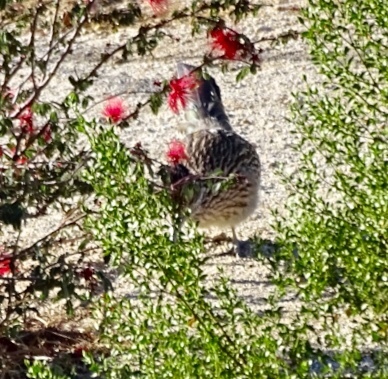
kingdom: Animalia
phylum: Chordata
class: Aves
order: Cuculiformes
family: Cuculidae
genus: Geococcyx
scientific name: Geococcyx californianus
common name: Greater roadrunner
